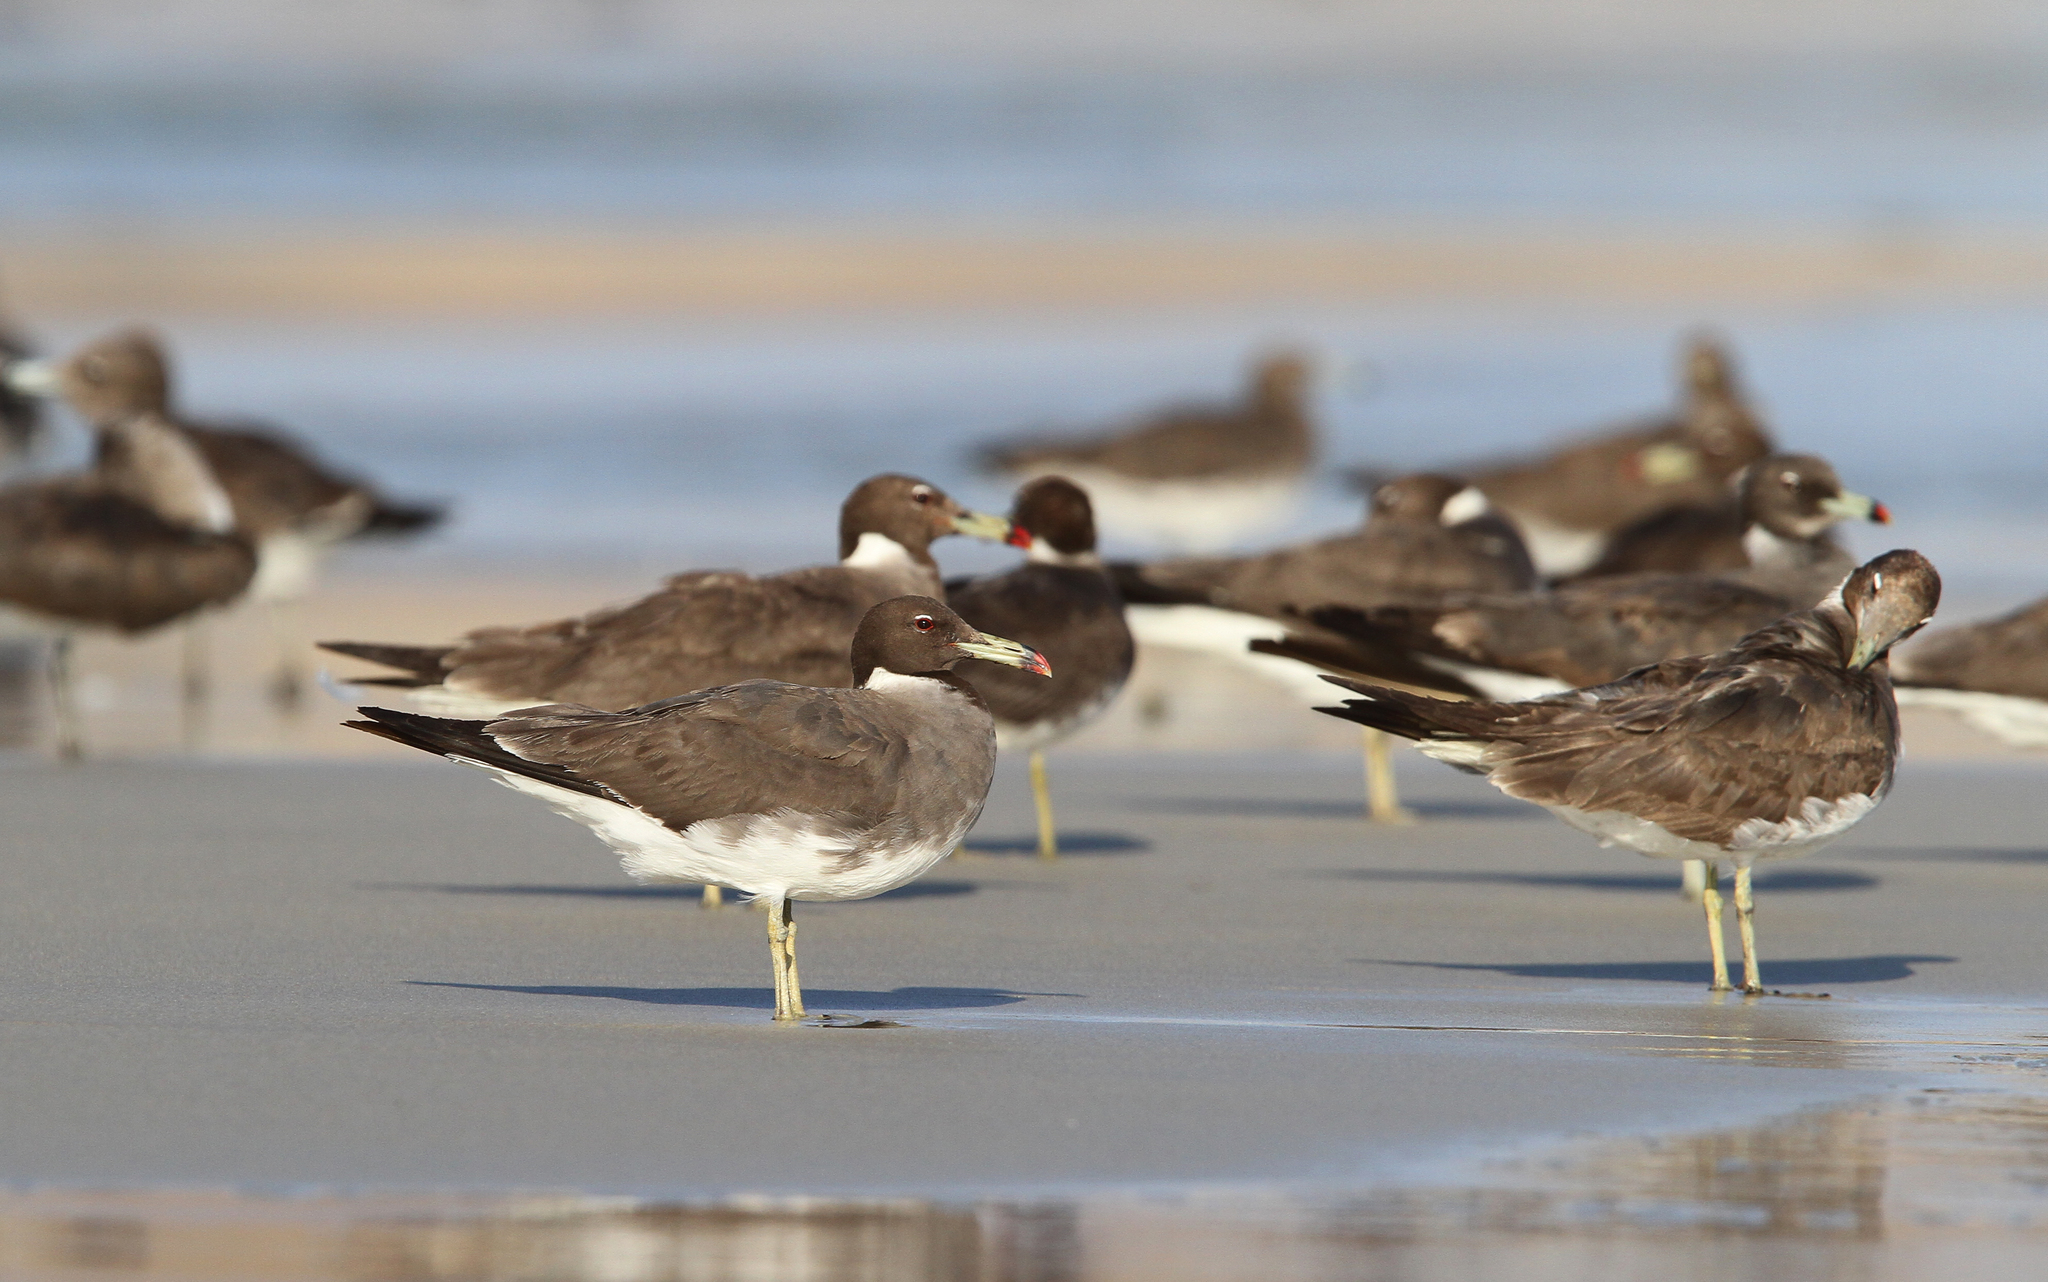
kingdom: Animalia
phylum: Chordata
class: Aves
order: Charadriiformes
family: Laridae
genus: Ichthyaetus
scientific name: Ichthyaetus hemprichii
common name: Sooty gull
